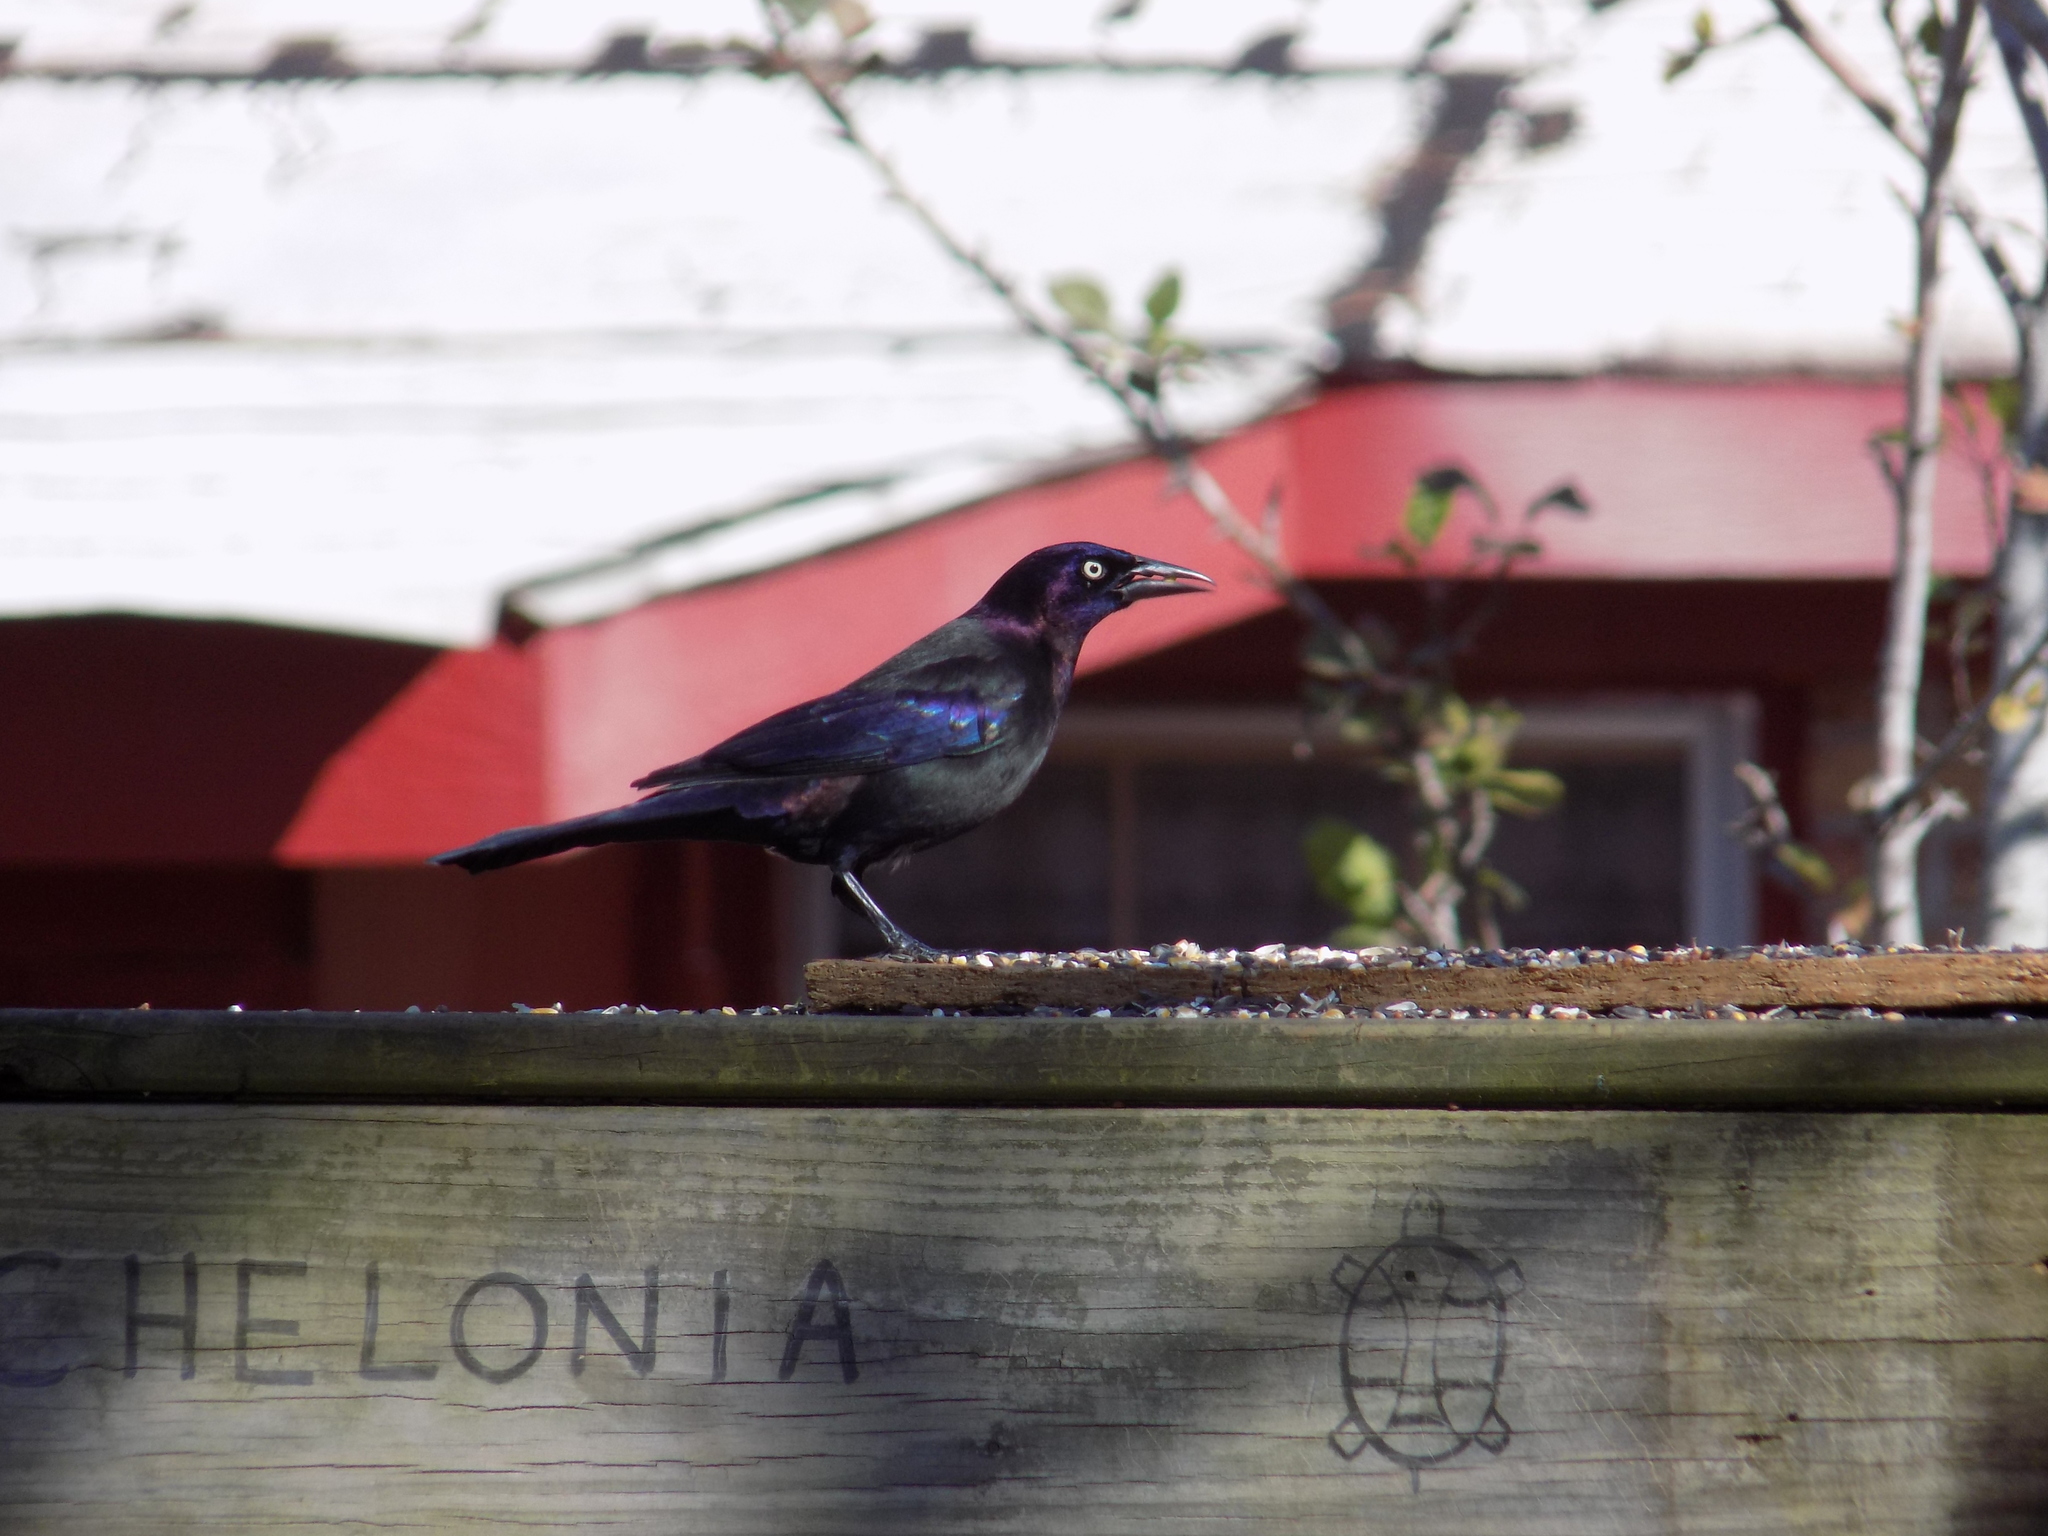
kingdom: Animalia
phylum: Chordata
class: Aves
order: Passeriformes
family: Icteridae
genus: Quiscalus
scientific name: Quiscalus quiscula
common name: Common grackle
